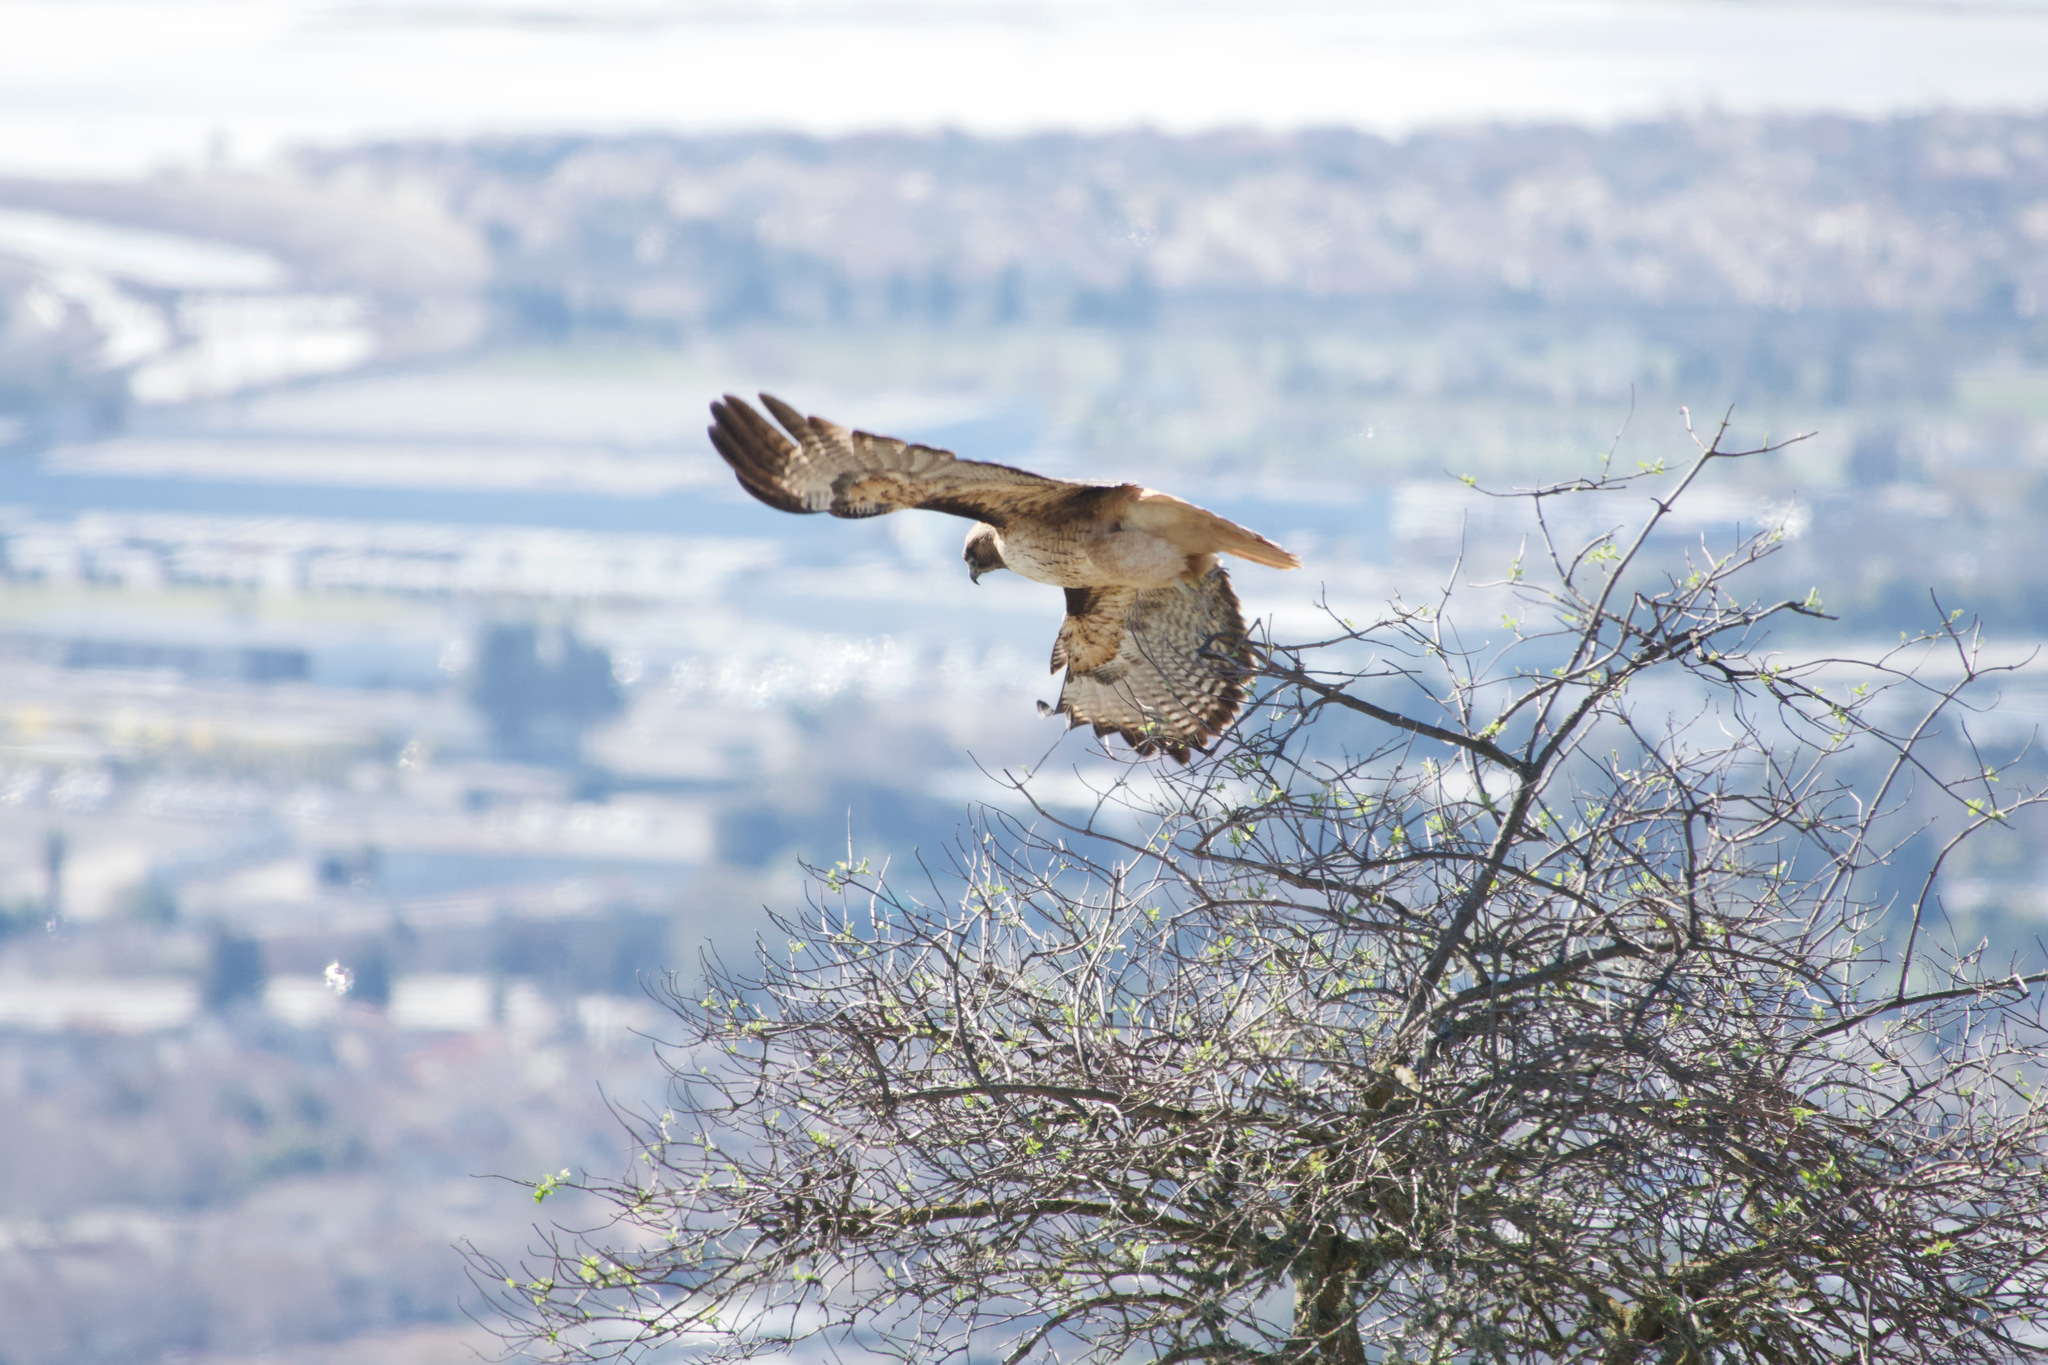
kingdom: Animalia
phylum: Chordata
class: Aves
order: Accipitriformes
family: Accipitridae
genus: Buteo
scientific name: Buteo jamaicensis
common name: Red-tailed hawk
